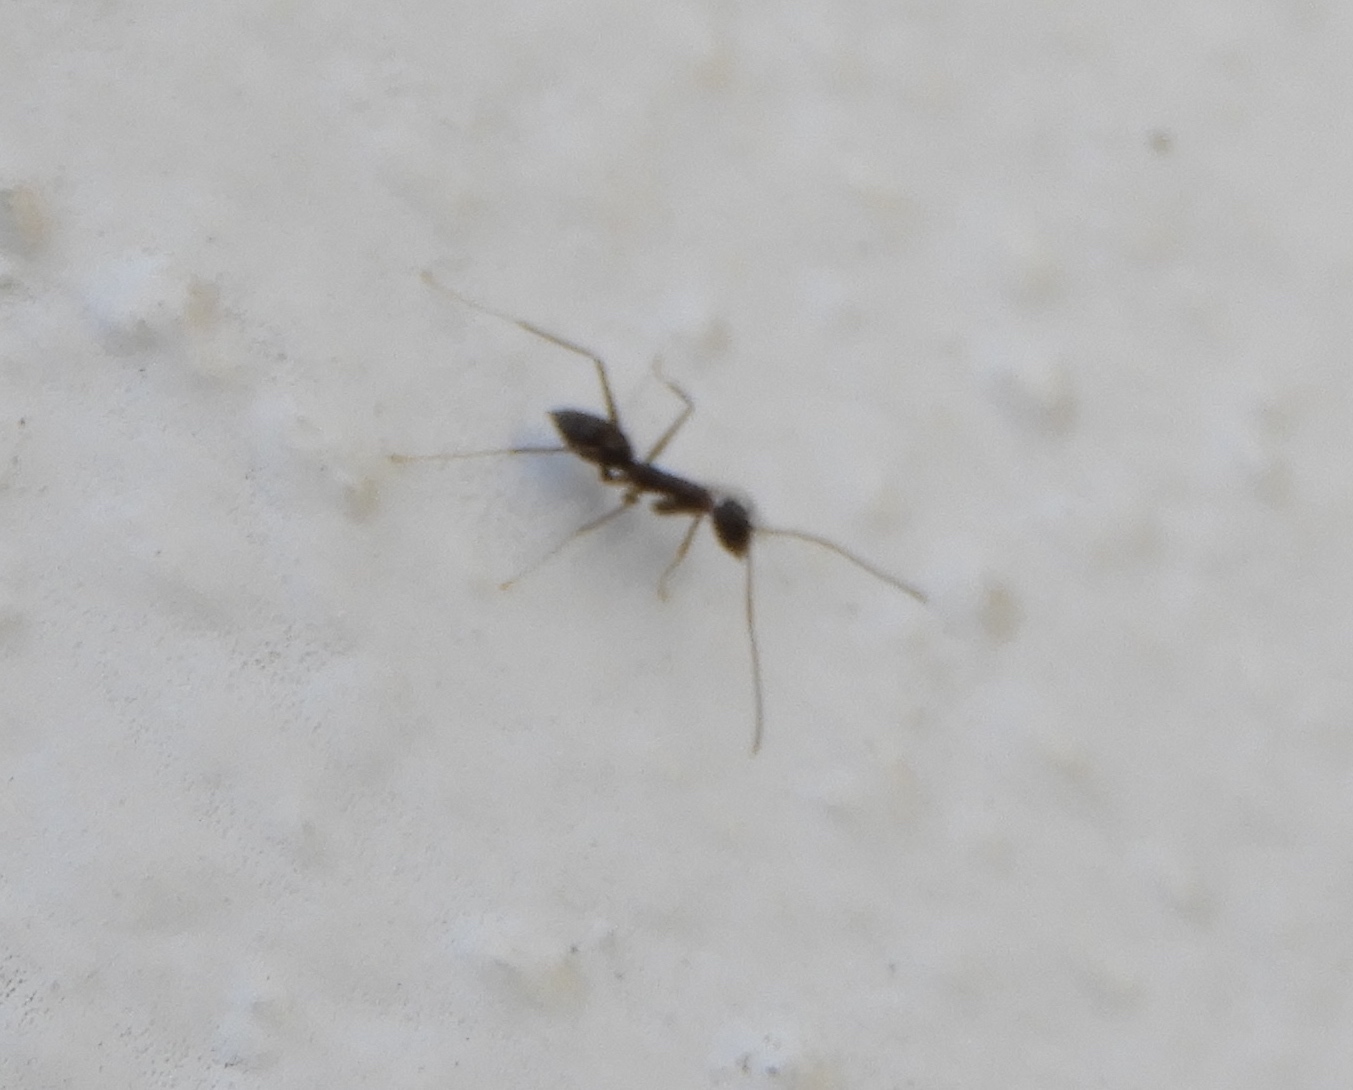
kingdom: Animalia
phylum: Arthropoda
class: Insecta
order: Hymenoptera
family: Formicidae
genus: Paratrechina
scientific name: Paratrechina longicornis
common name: Longhorned crazy ant
